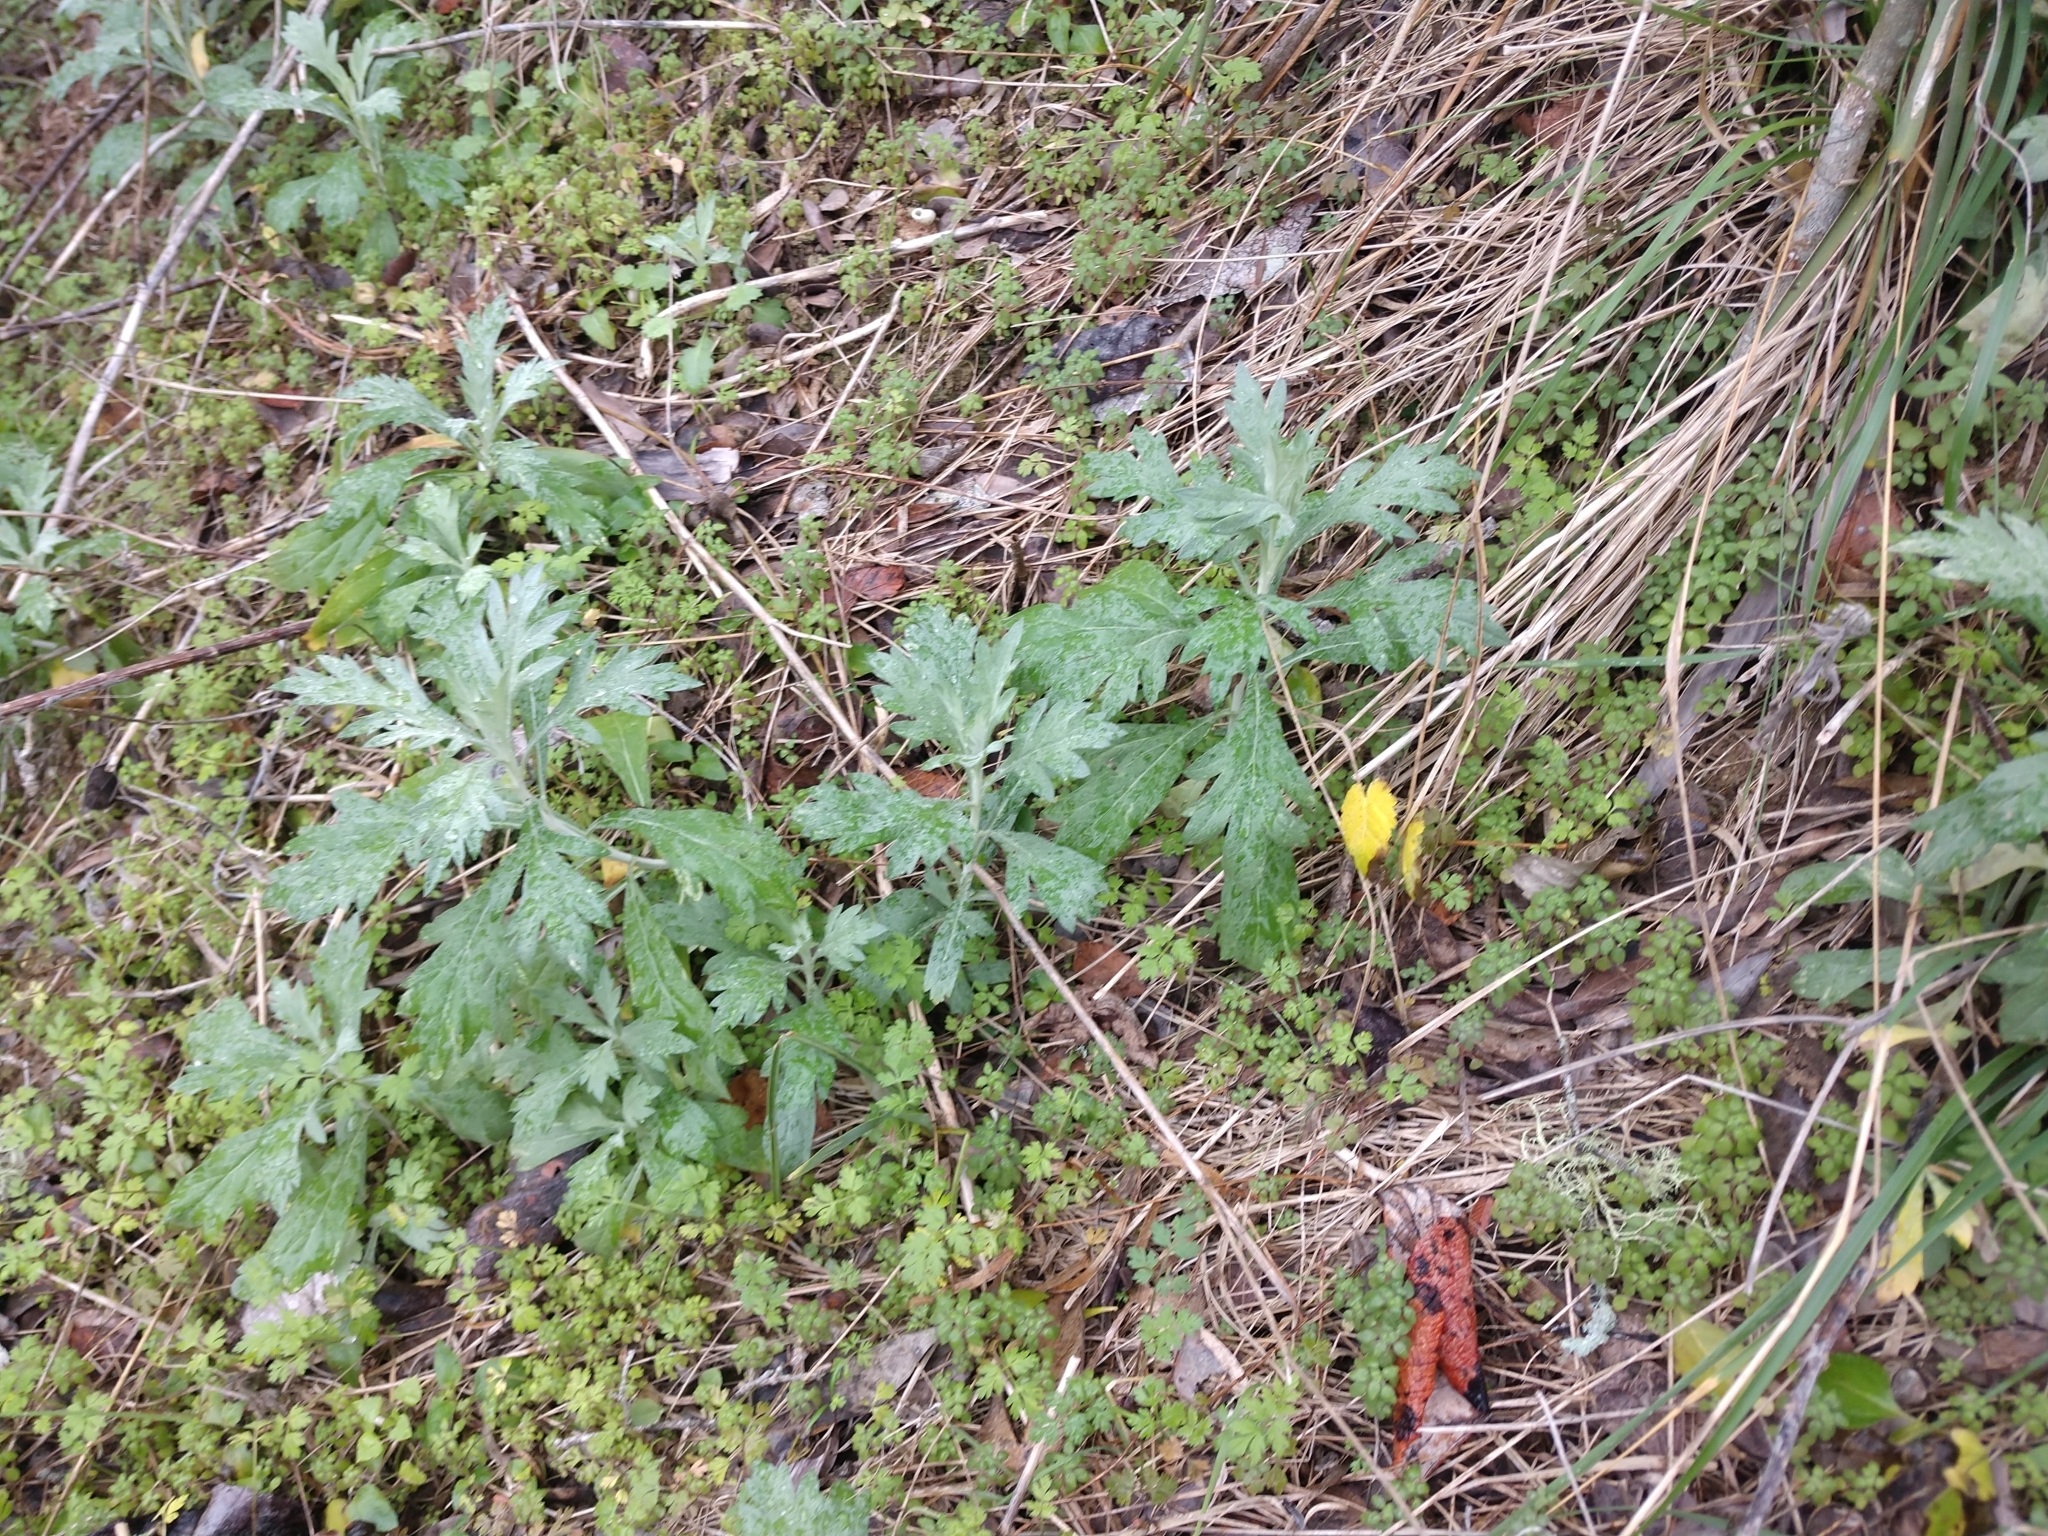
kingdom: Plantae
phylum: Tracheophyta
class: Magnoliopsida
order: Asterales
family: Asteraceae
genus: Artemisia
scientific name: Artemisia ludoviciana
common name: Western mugwort
